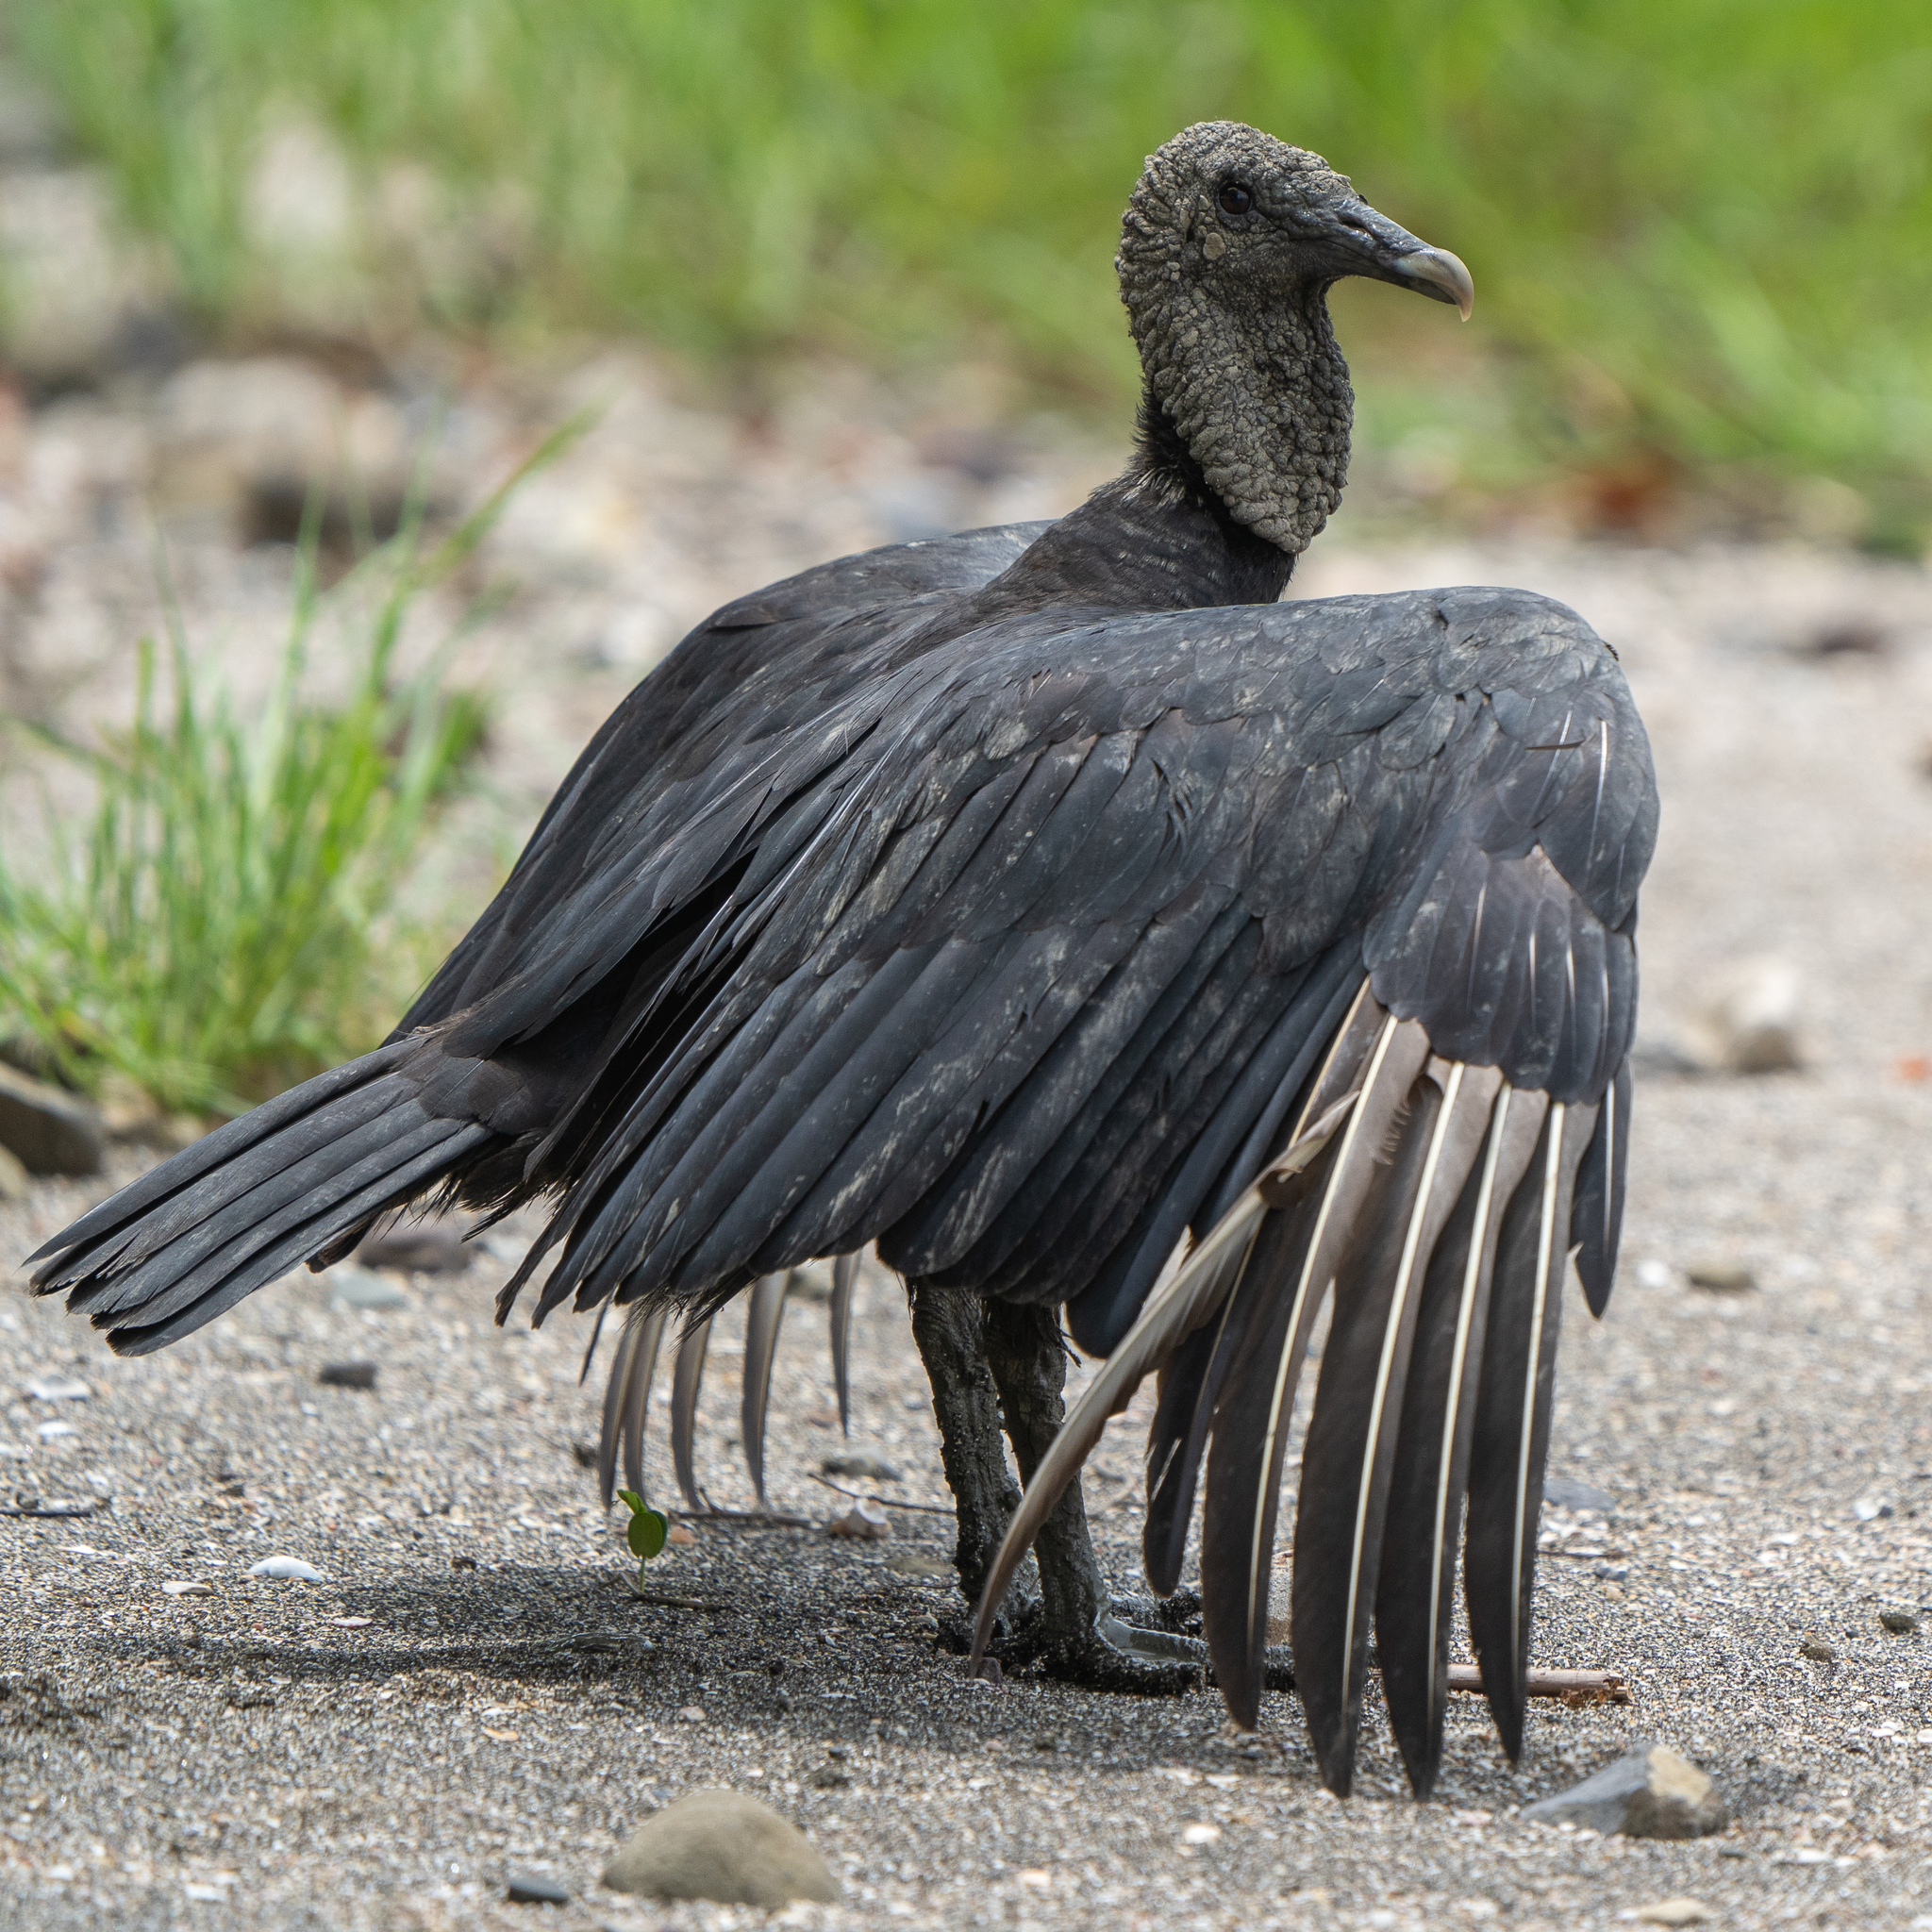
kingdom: Animalia
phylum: Chordata
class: Aves
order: Accipitriformes
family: Cathartidae
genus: Coragyps
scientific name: Coragyps atratus
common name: Black vulture
